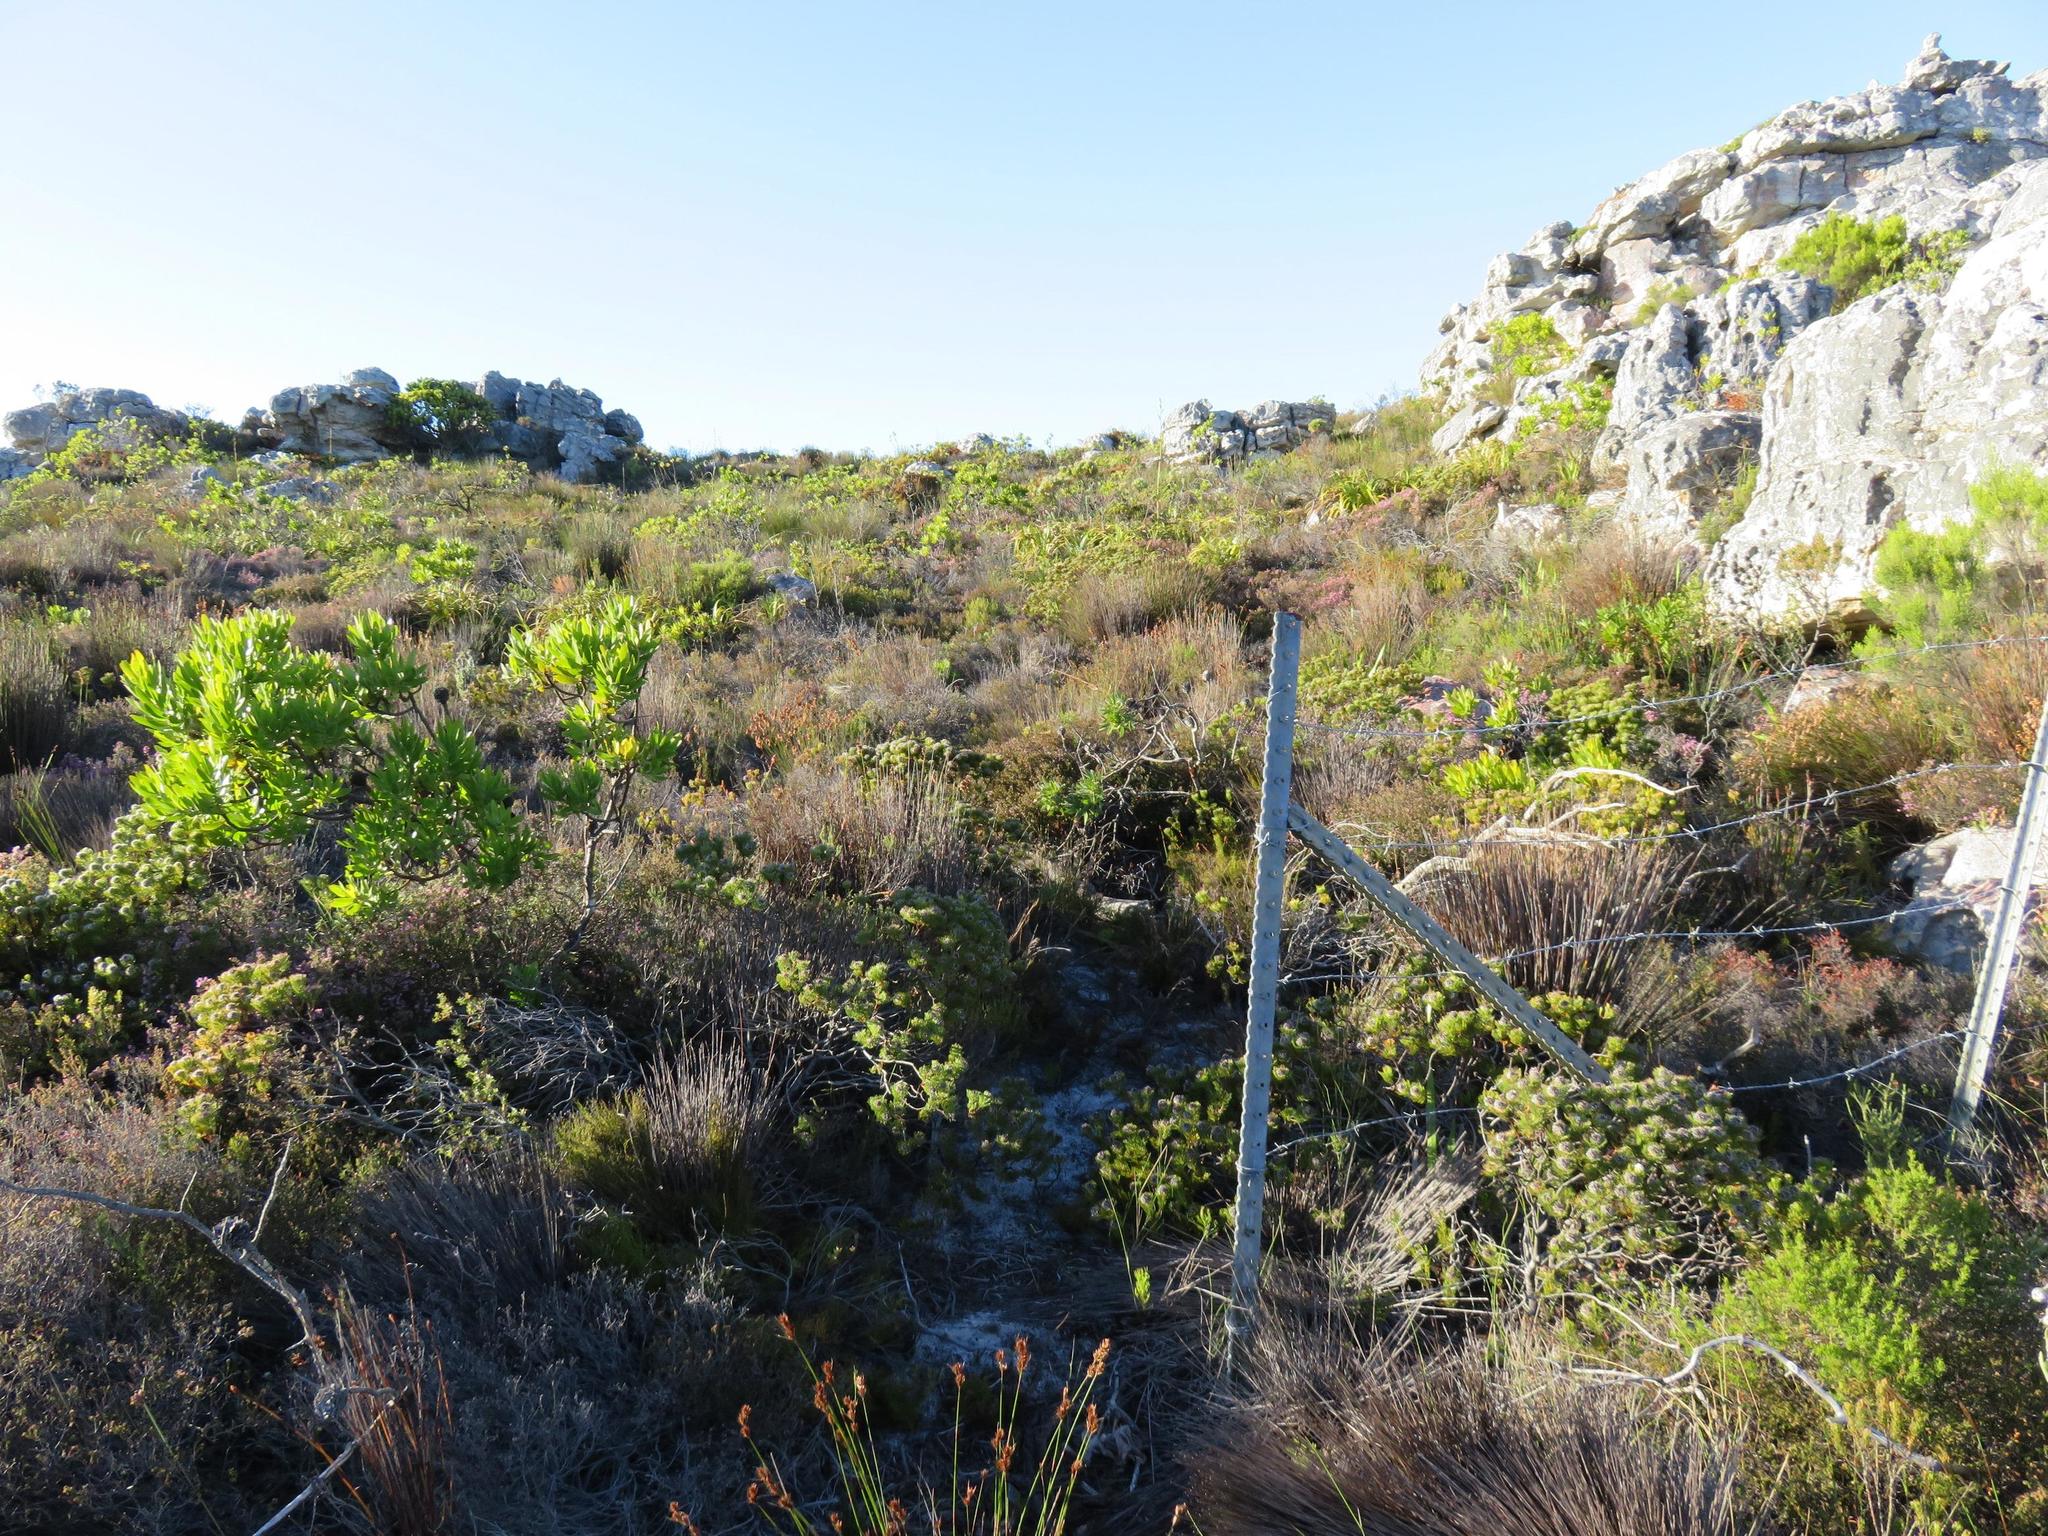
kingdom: Plantae
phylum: Tracheophyta
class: Magnoliopsida
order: Proteales
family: Proteaceae
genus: Leucadendron
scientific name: Leucadendron laureolum
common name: Golden sunshinebush
